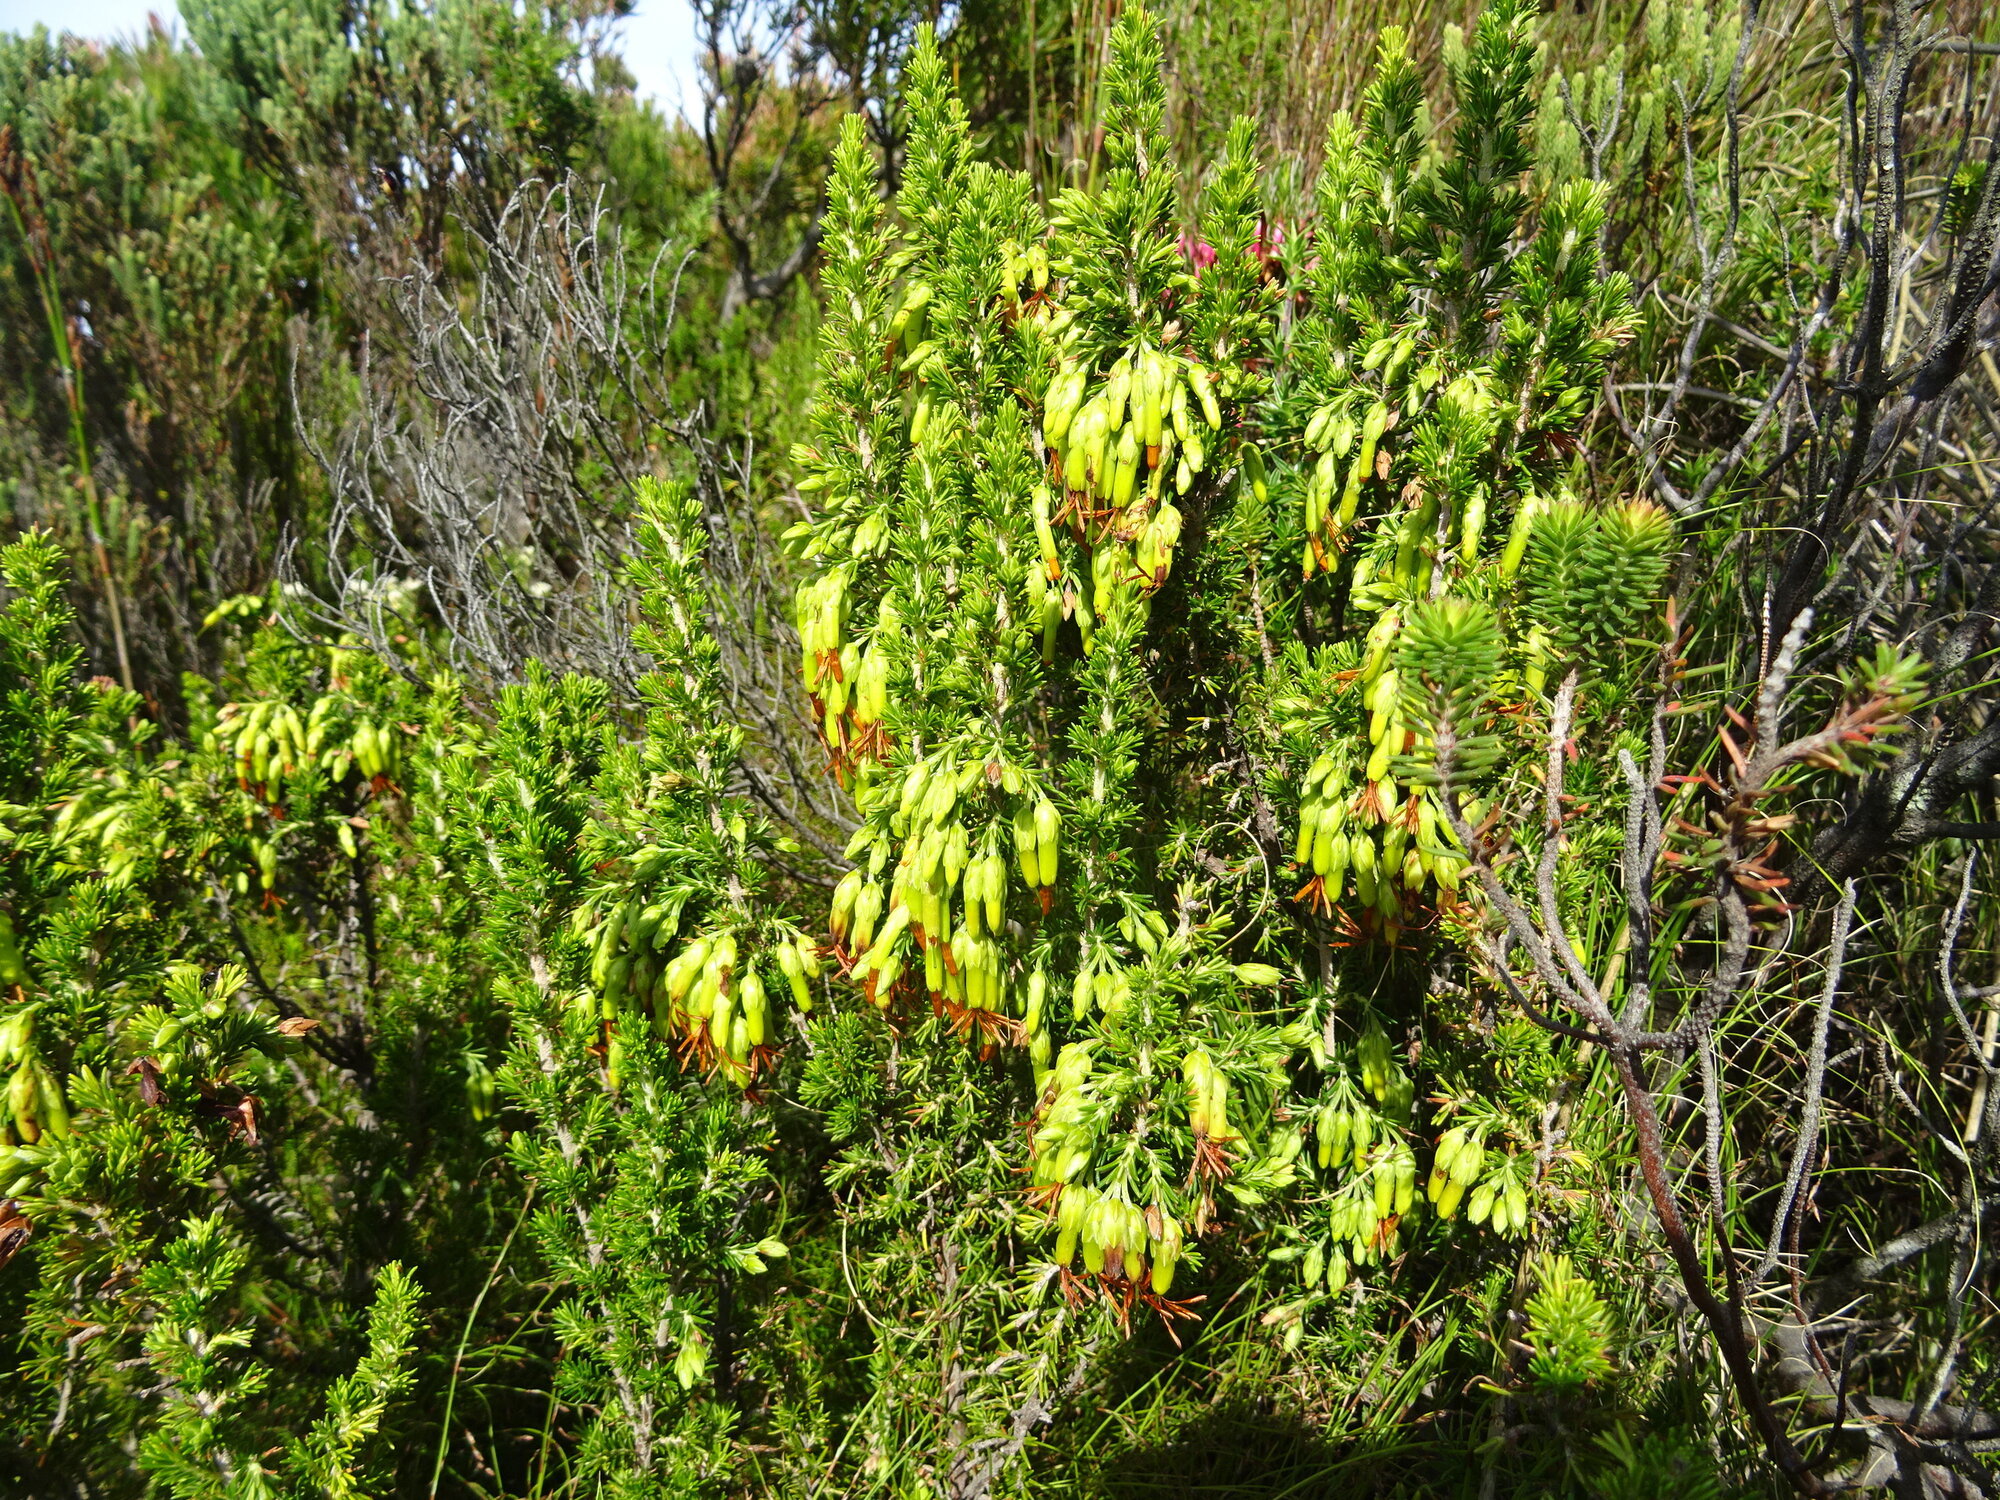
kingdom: Plantae
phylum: Tracheophyta
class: Magnoliopsida
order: Ericales
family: Ericaceae
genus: Erica
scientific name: Erica coccinea
